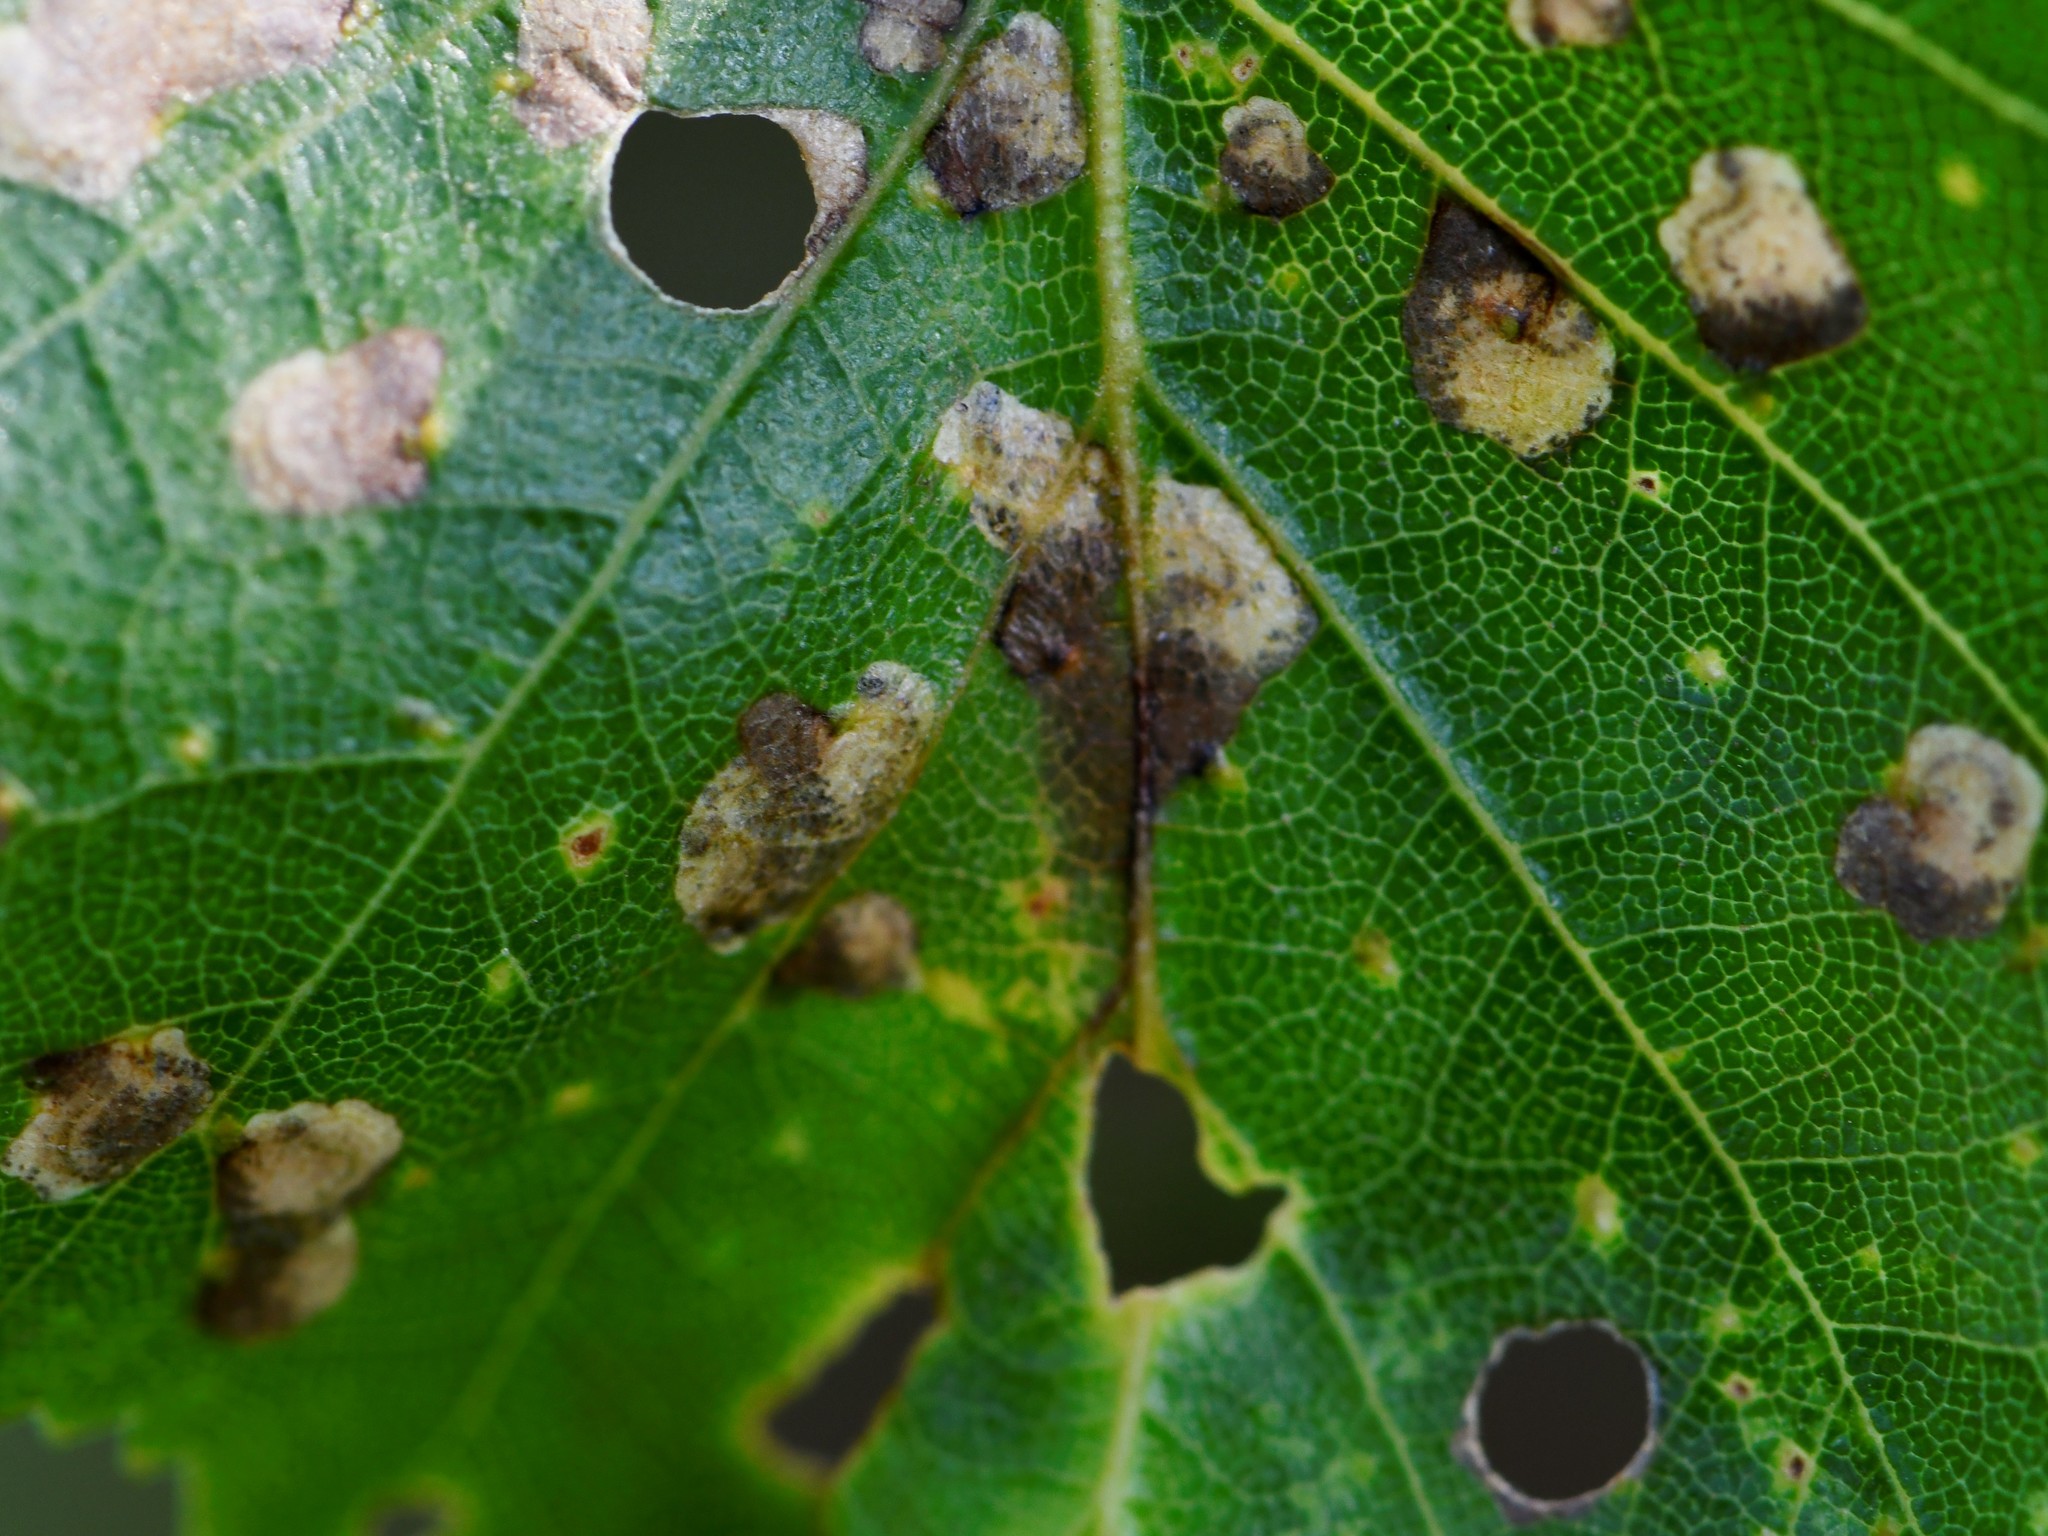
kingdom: Animalia
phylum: Arthropoda
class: Insecta
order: Lepidoptera
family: Incurvariidae
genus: Incurvaria
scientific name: Incurvaria pectinea
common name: Pale feathered leaf-cutter
